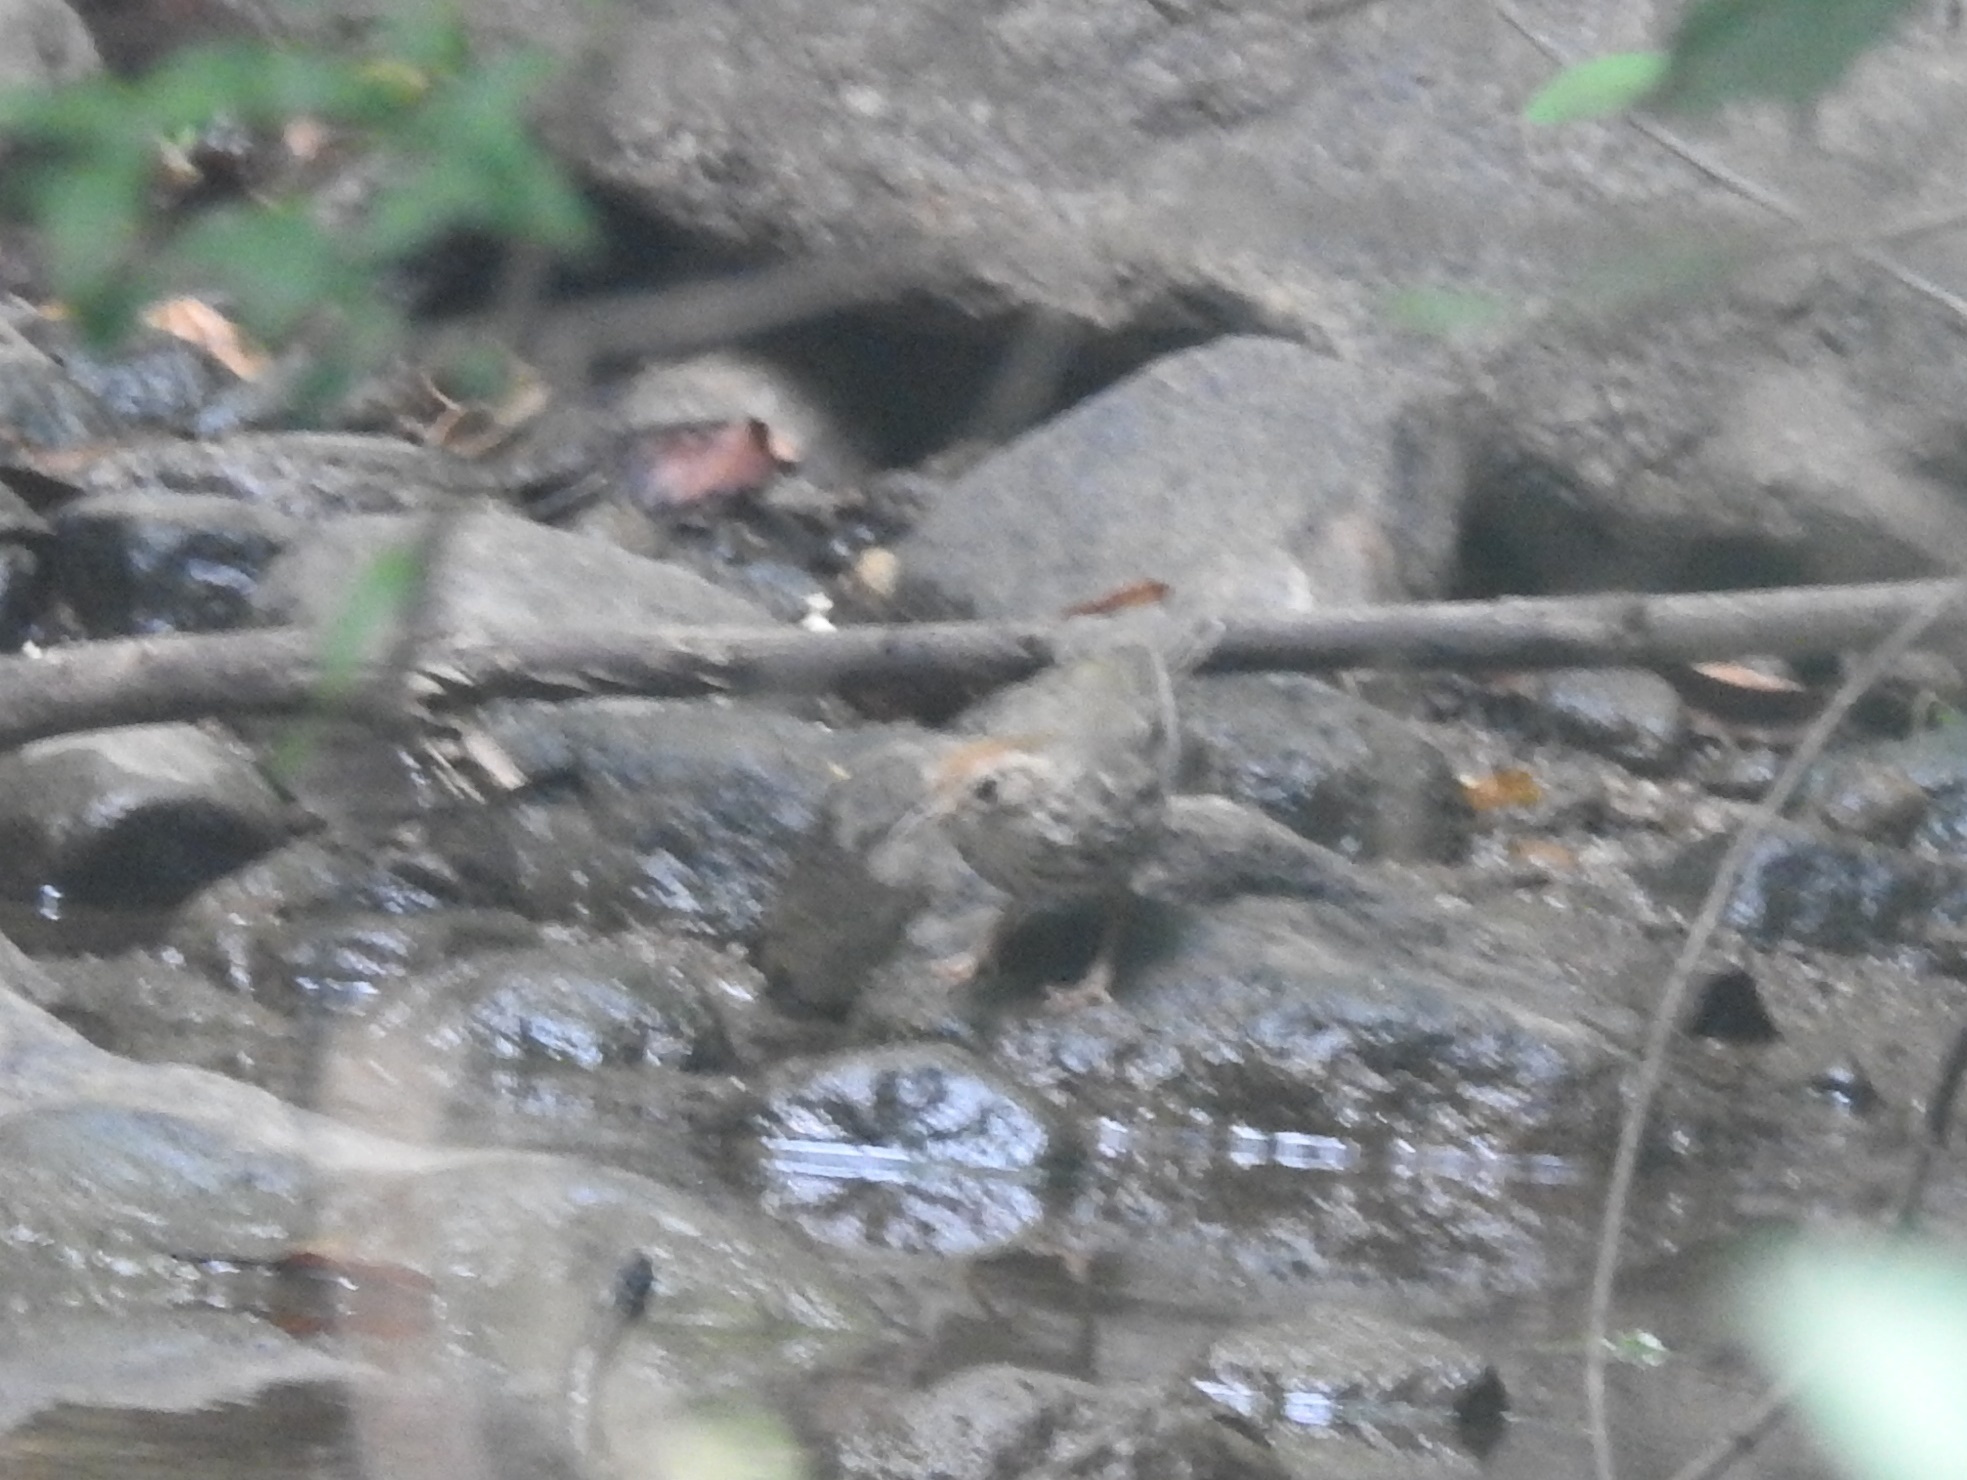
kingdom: Animalia
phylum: Chordata
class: Aves
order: Passeriformes
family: Pellorneidae
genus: Pellorneum
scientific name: Pellorneum ruficeps
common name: Puff-throated babbler
